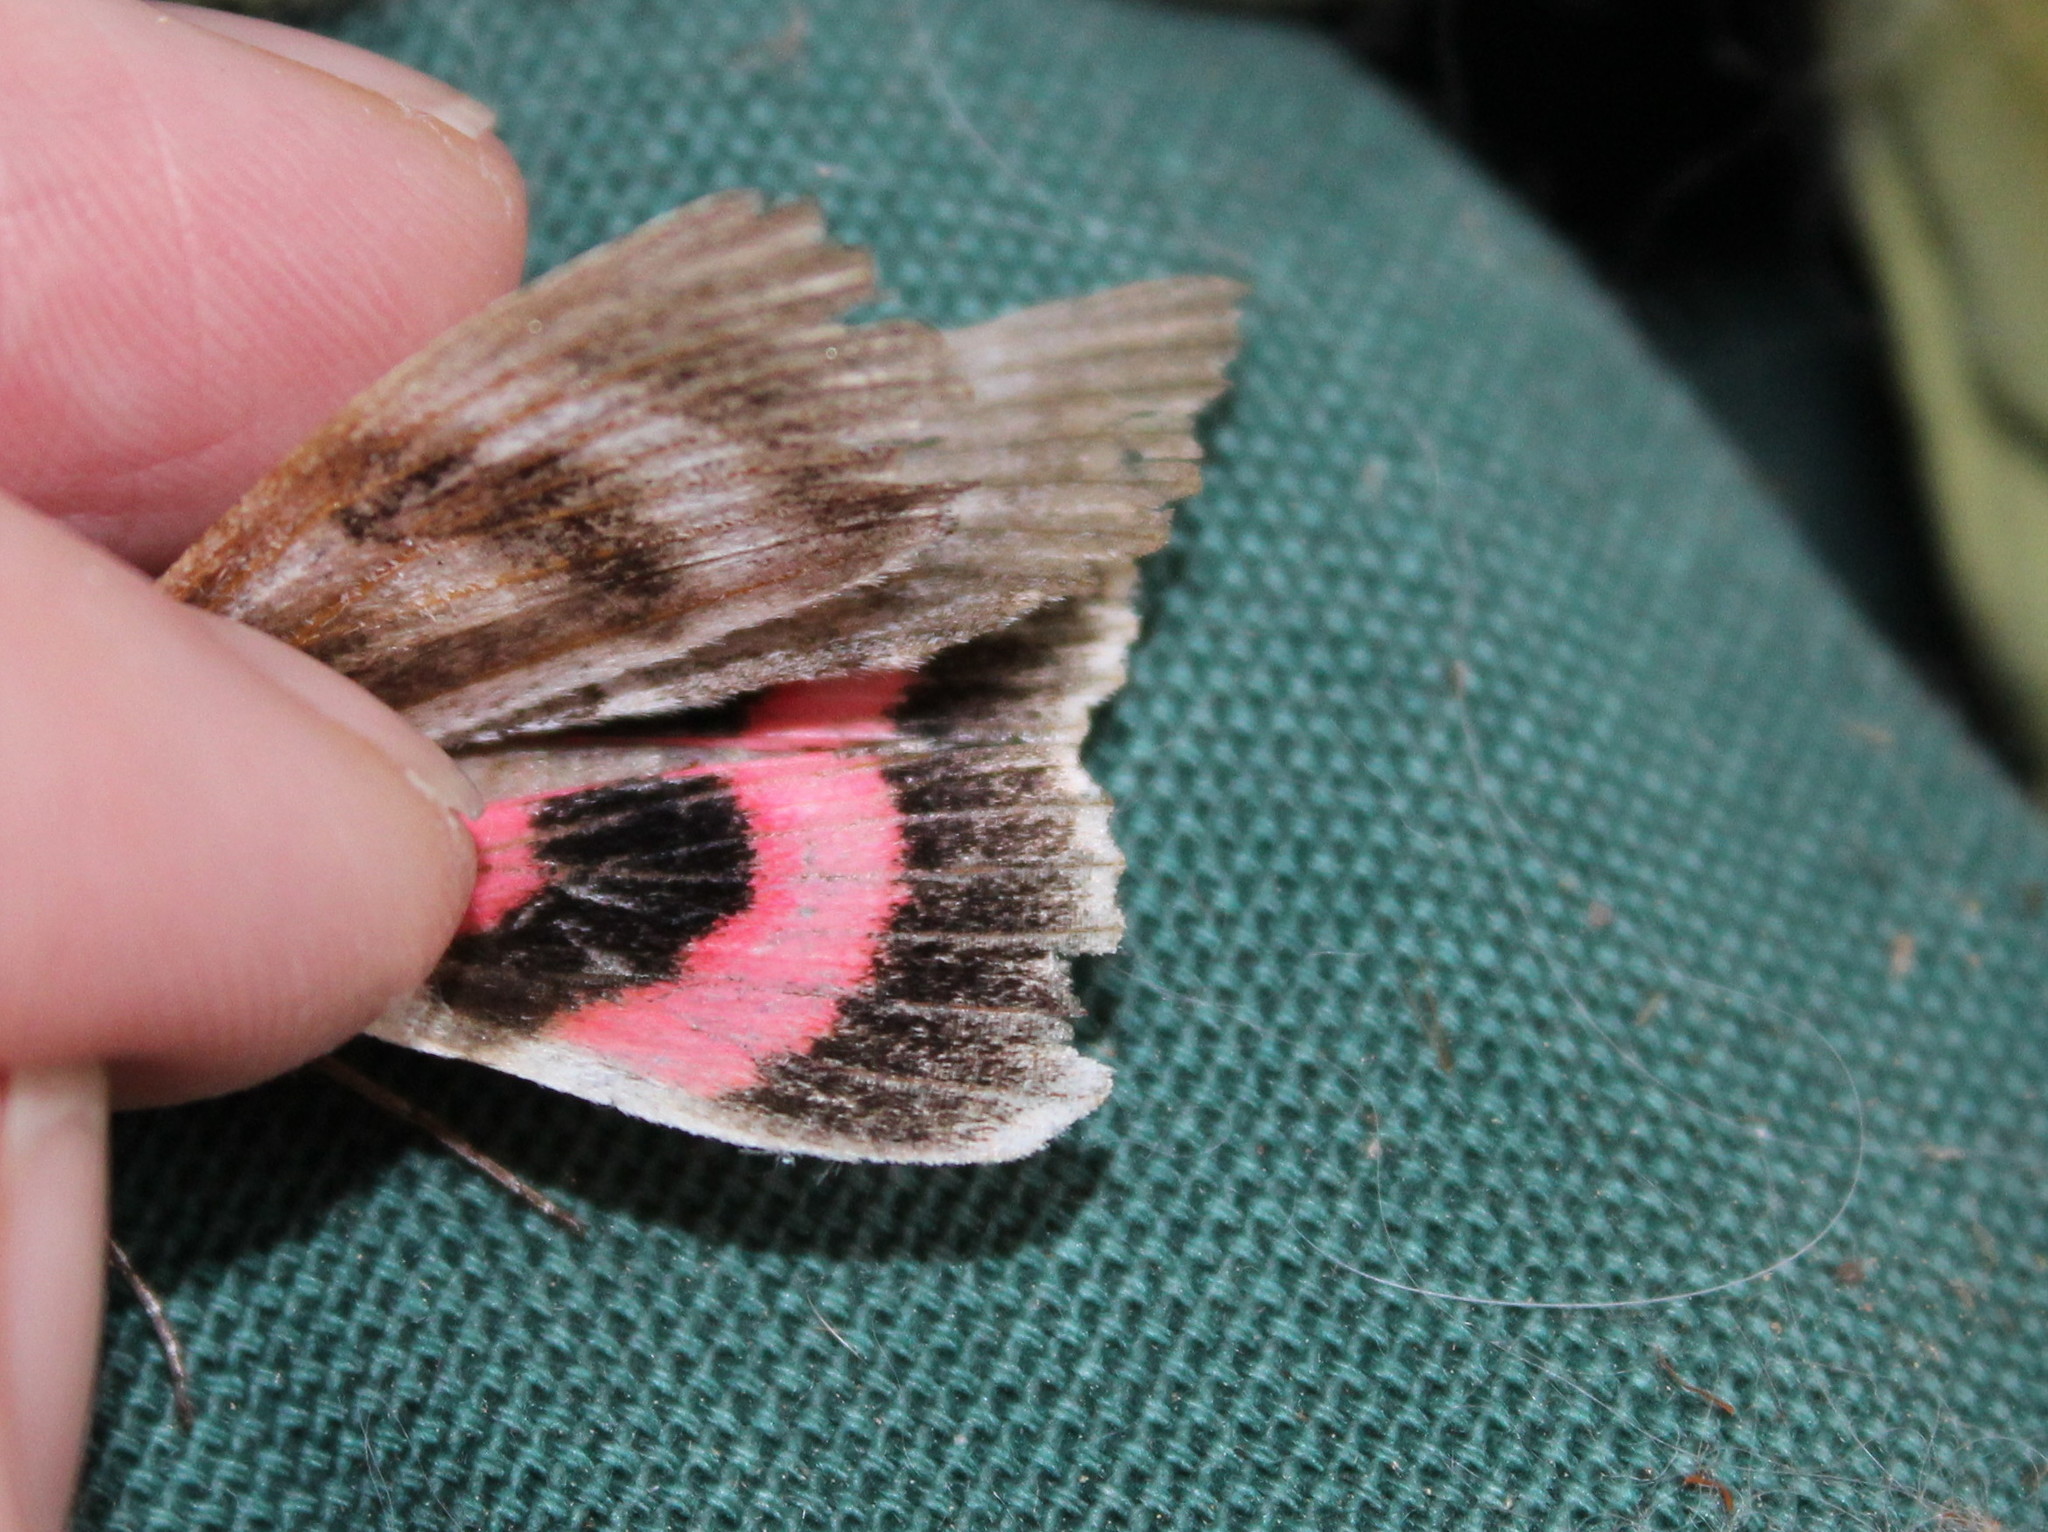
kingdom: Animalia
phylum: Arthropoda
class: Insecta
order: Lepidoptera
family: Erebidae
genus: Catocala
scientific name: Catocala concumbens
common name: Pink underwing
